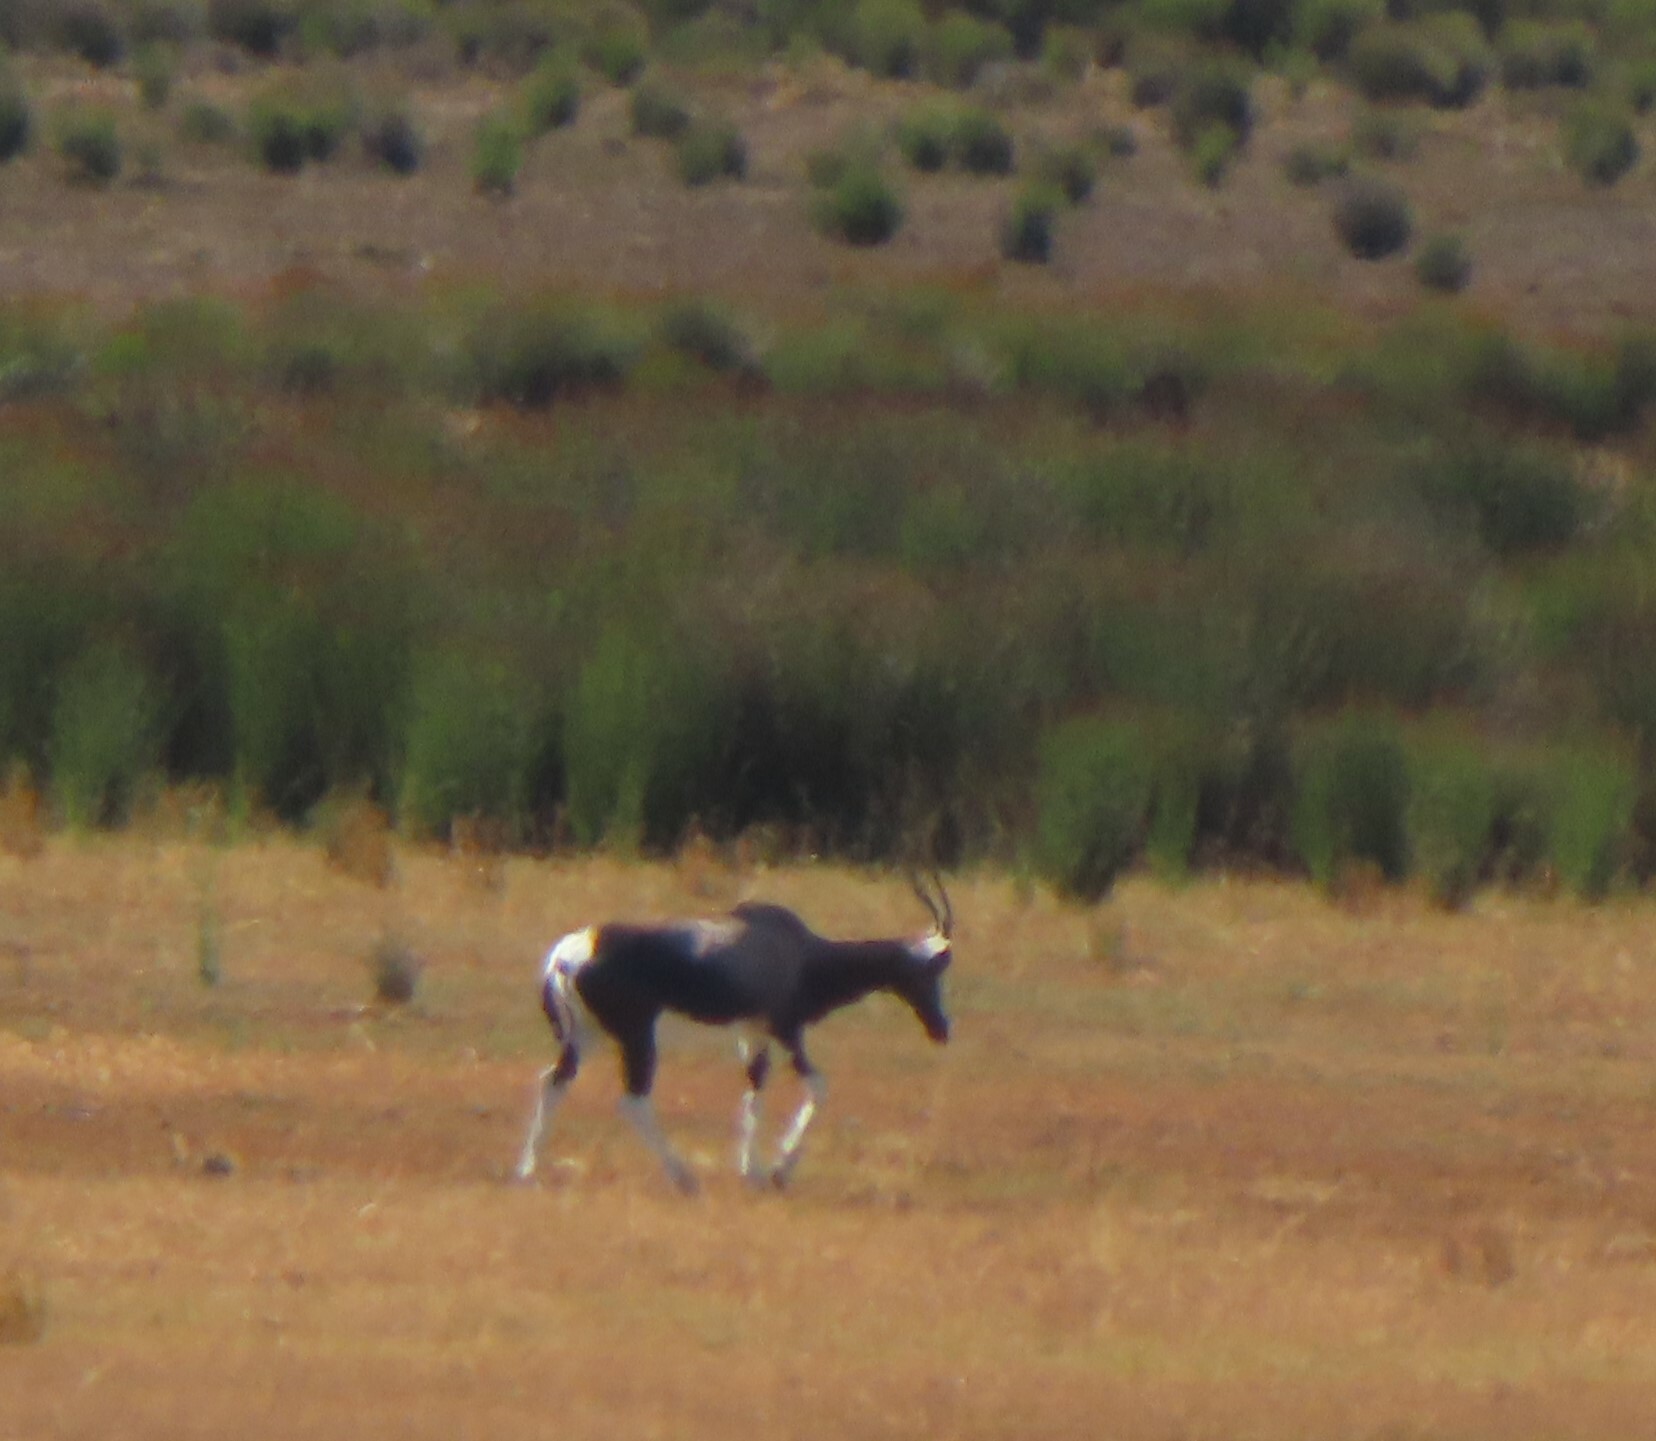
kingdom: Animalia
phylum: Chordata
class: Mammalia
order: Artiodactyla
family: Bovidae
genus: Damaliscus
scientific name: Damaliscus pygargus
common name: Bontebok
